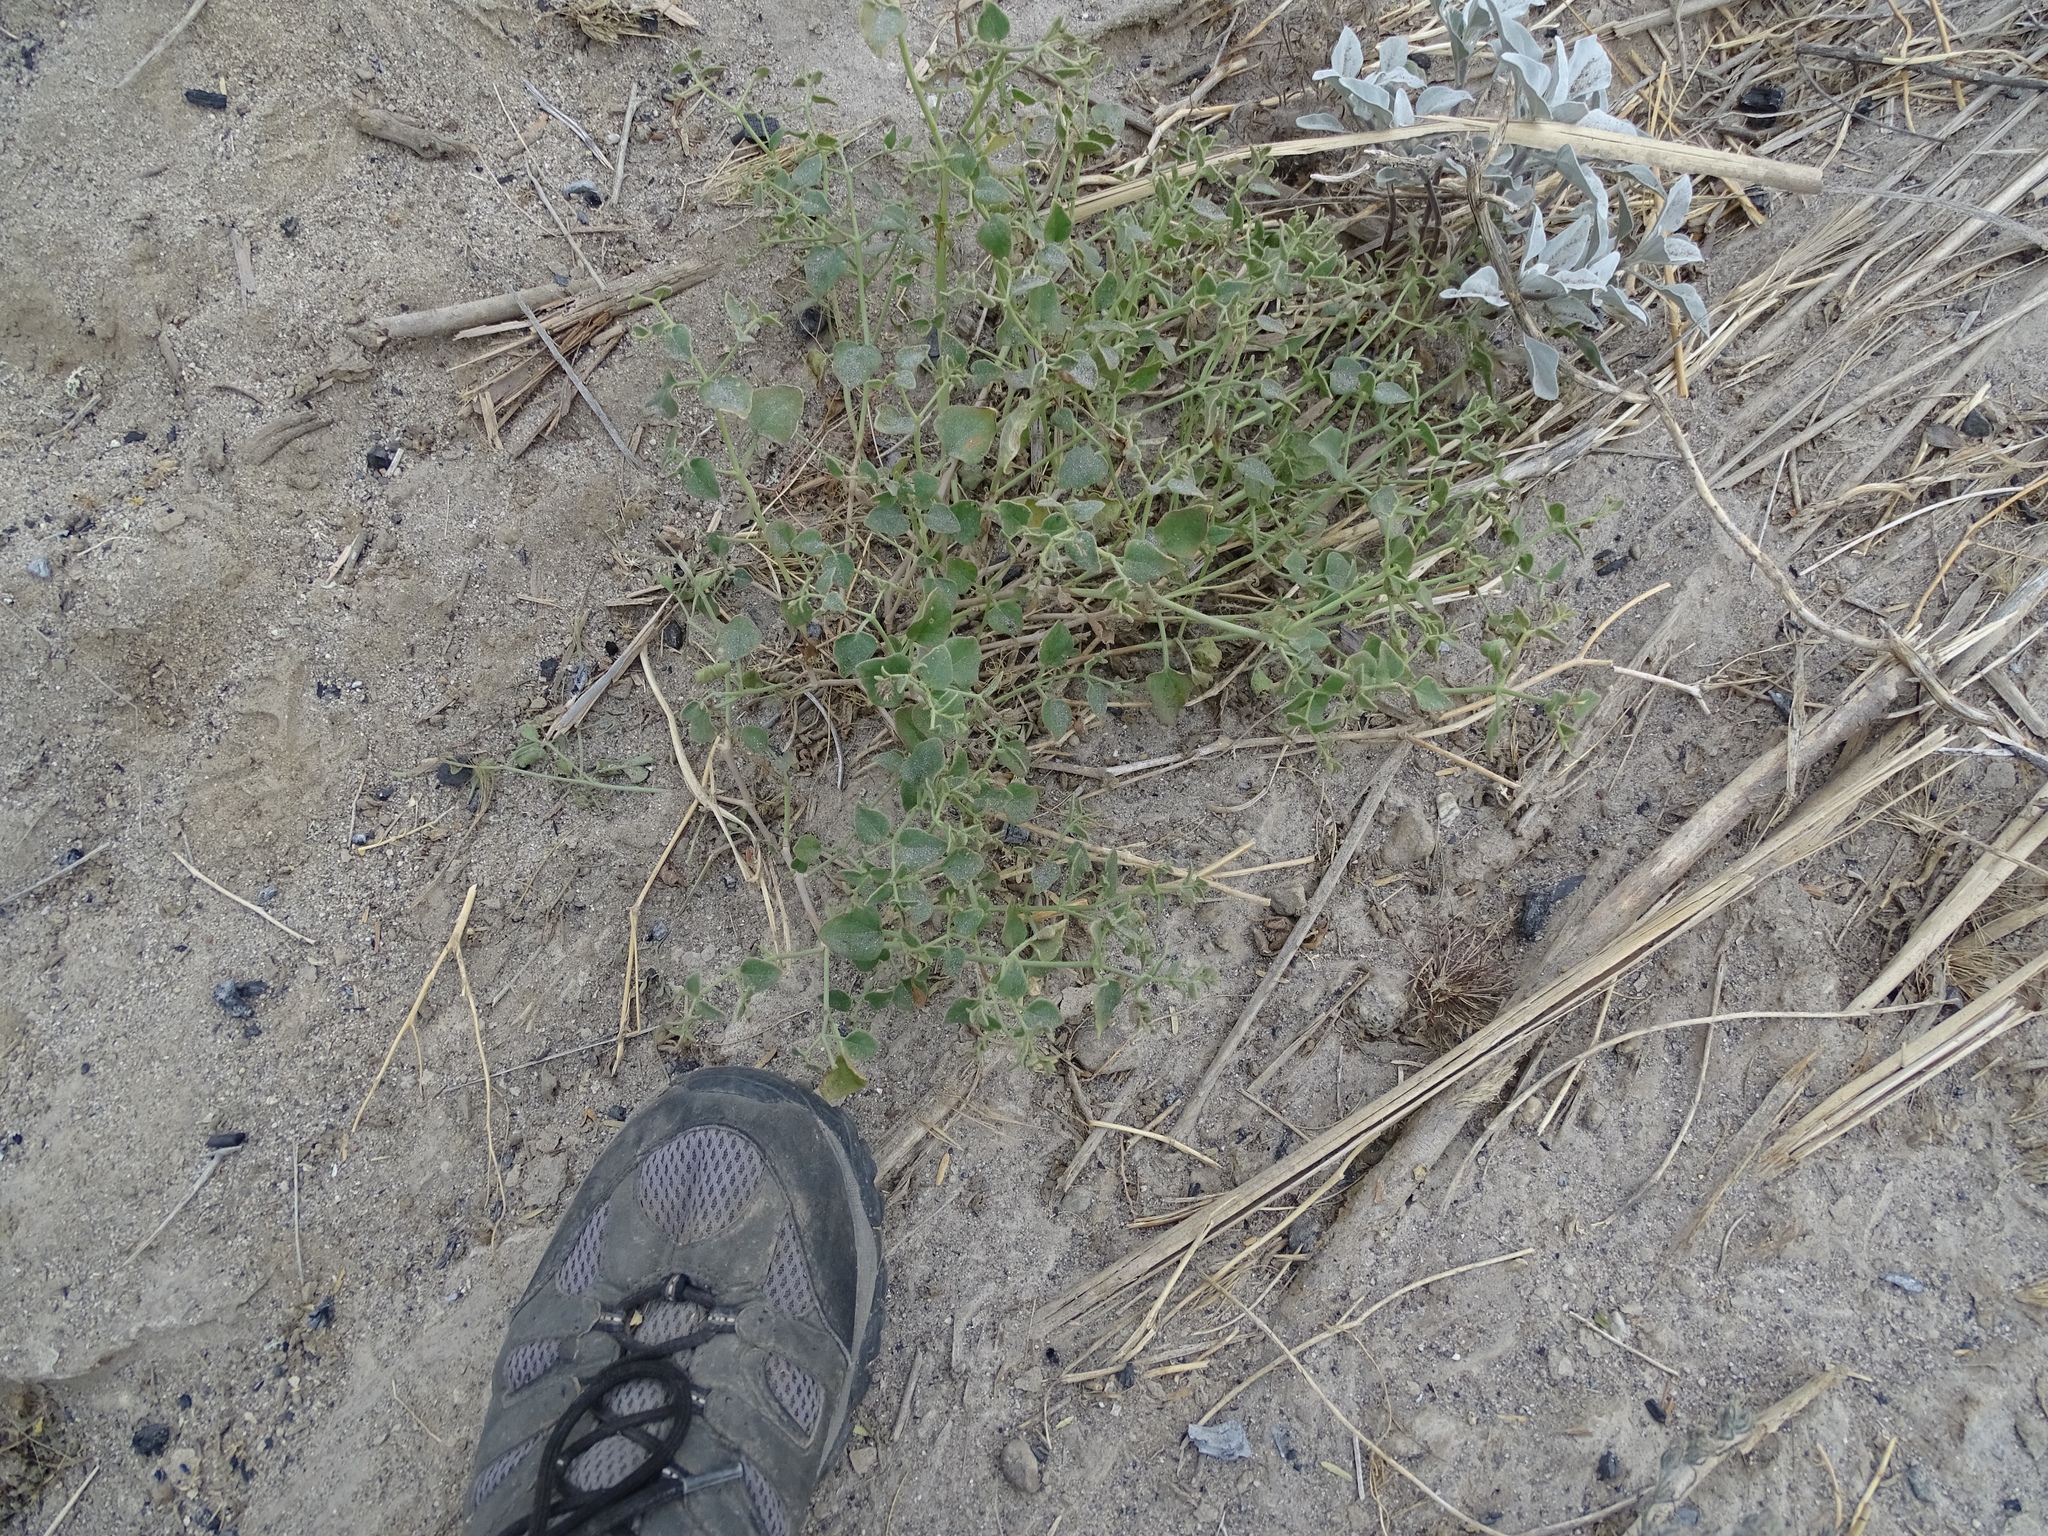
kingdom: Plantae
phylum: Tracheophyta
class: Magnoliopsida
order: Caryophyllales
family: Nyctaginaceae
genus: Mirabilis
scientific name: Mirabilis laevis
